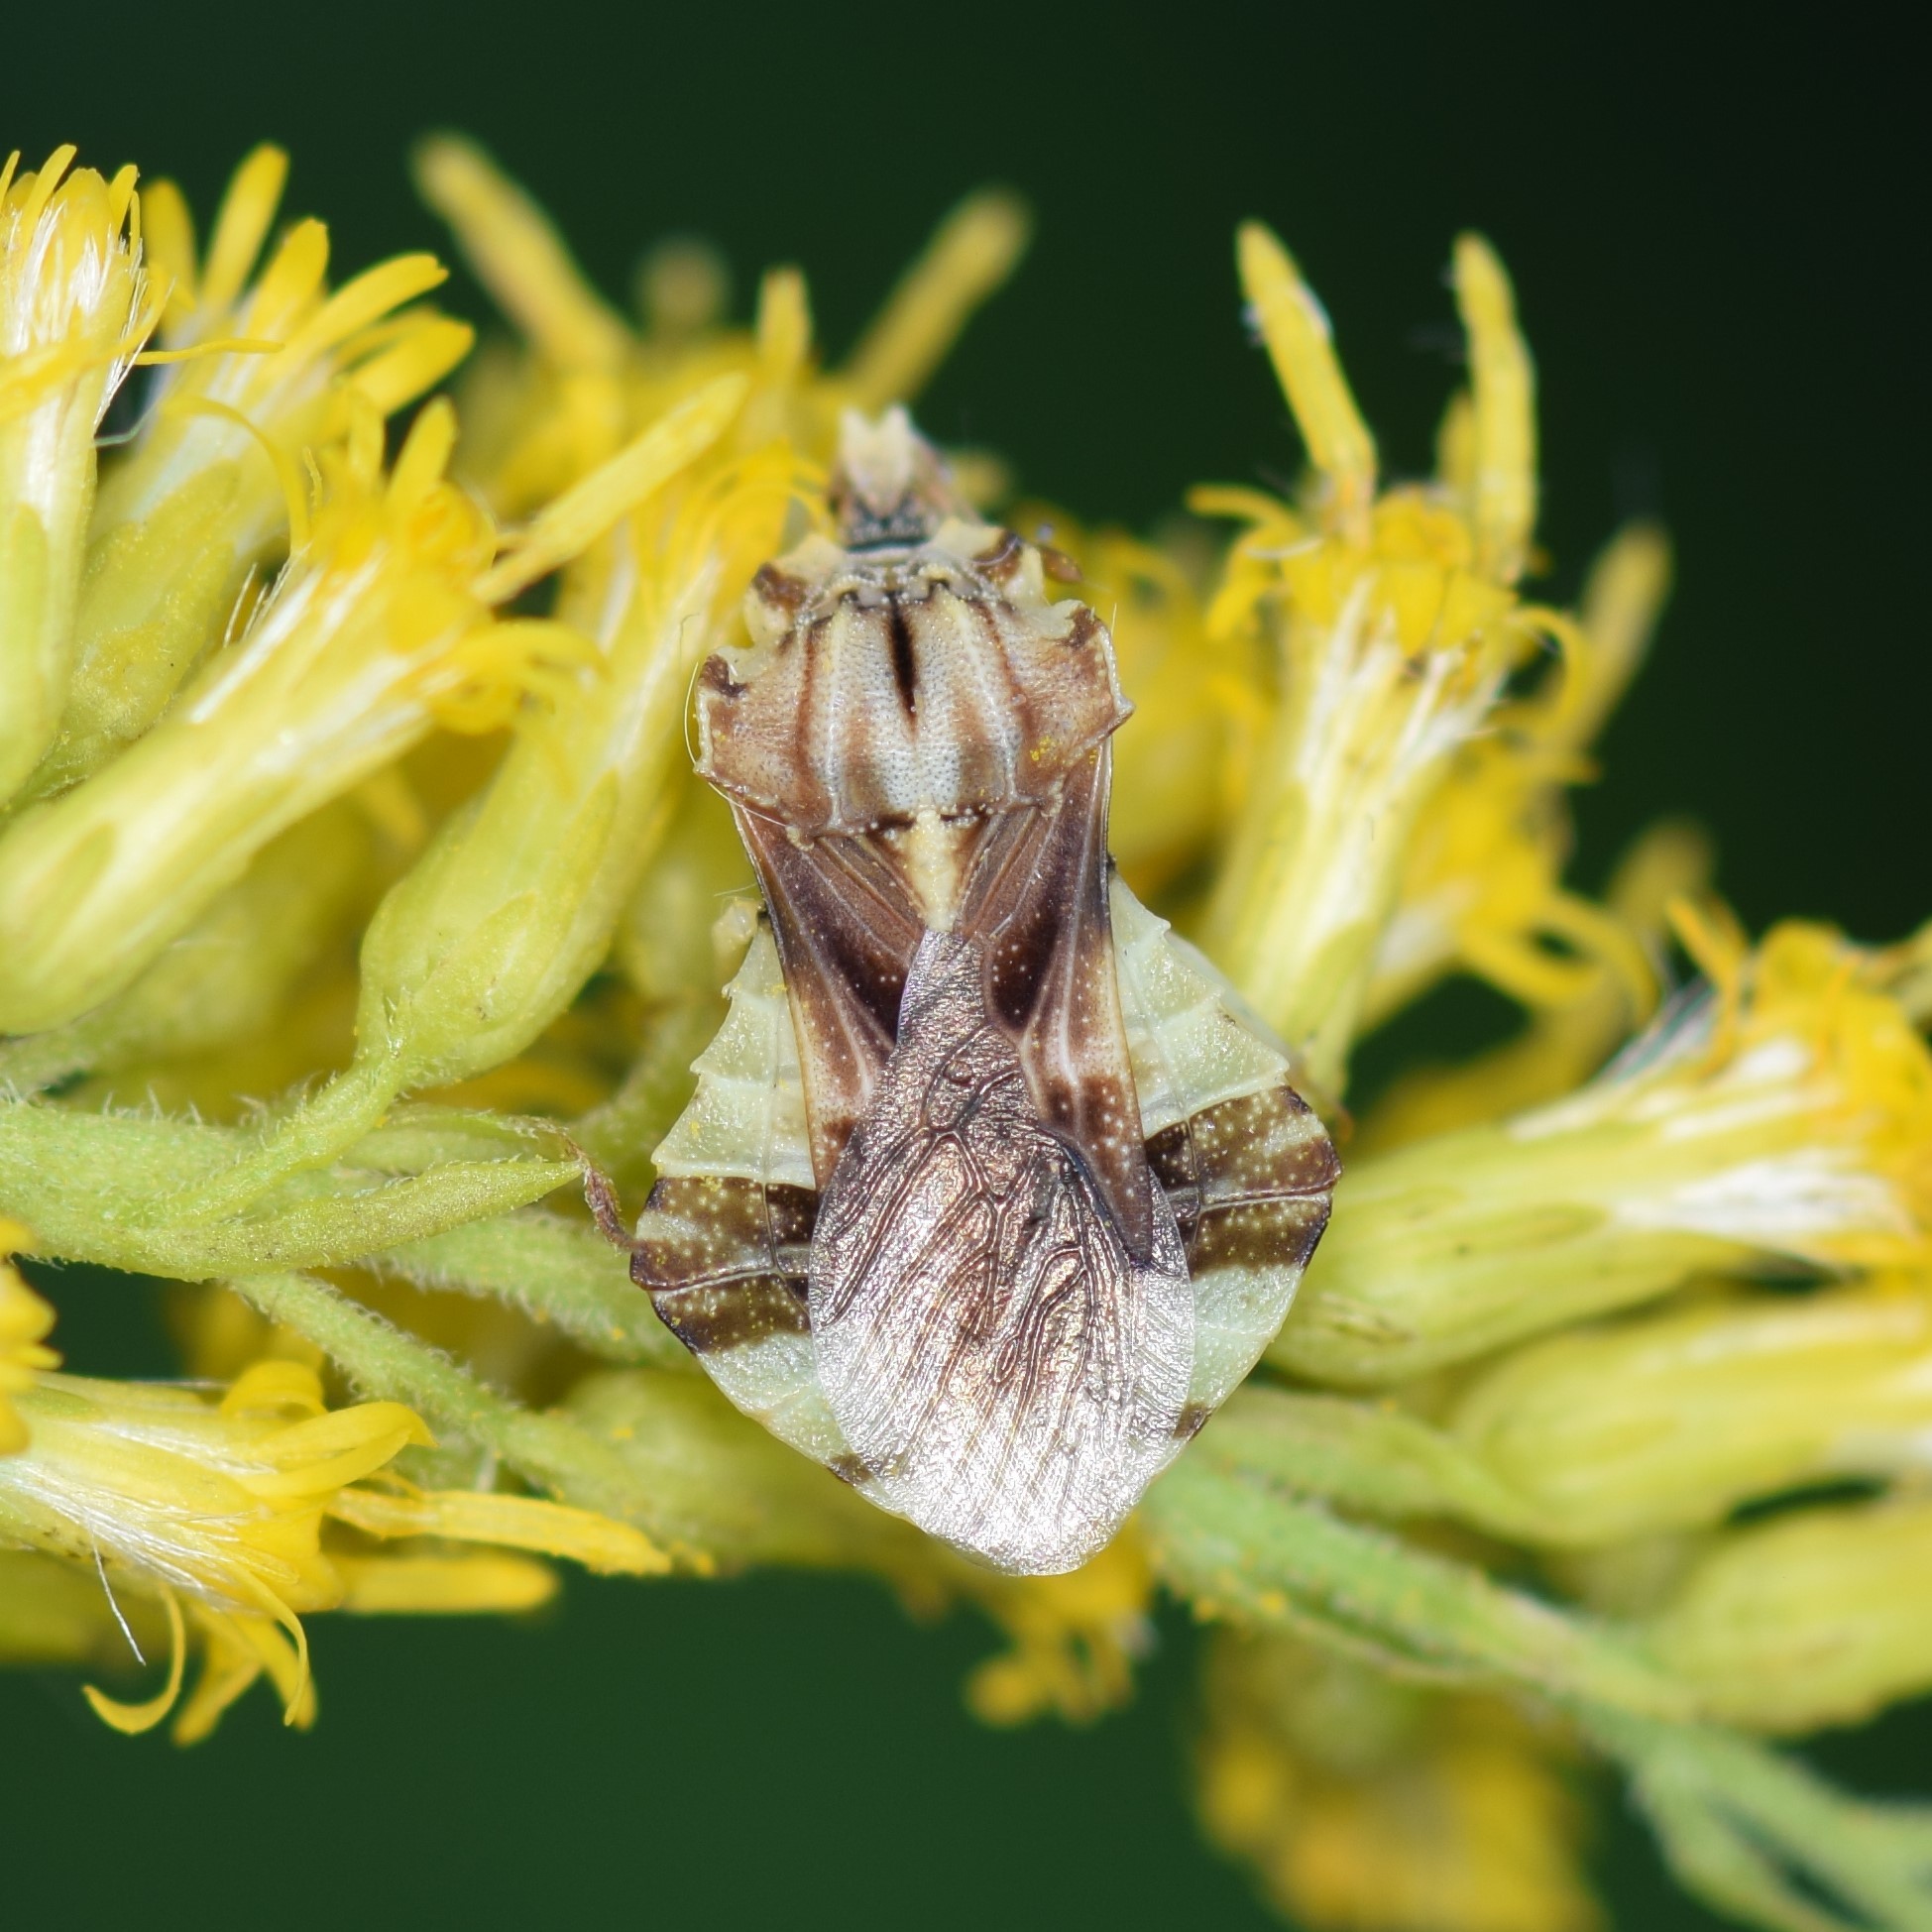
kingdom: Animalia
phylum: Arthropoda
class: Insecta
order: Hemiptera
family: Reduviidae
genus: Phymata
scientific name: Phymata fasciata
